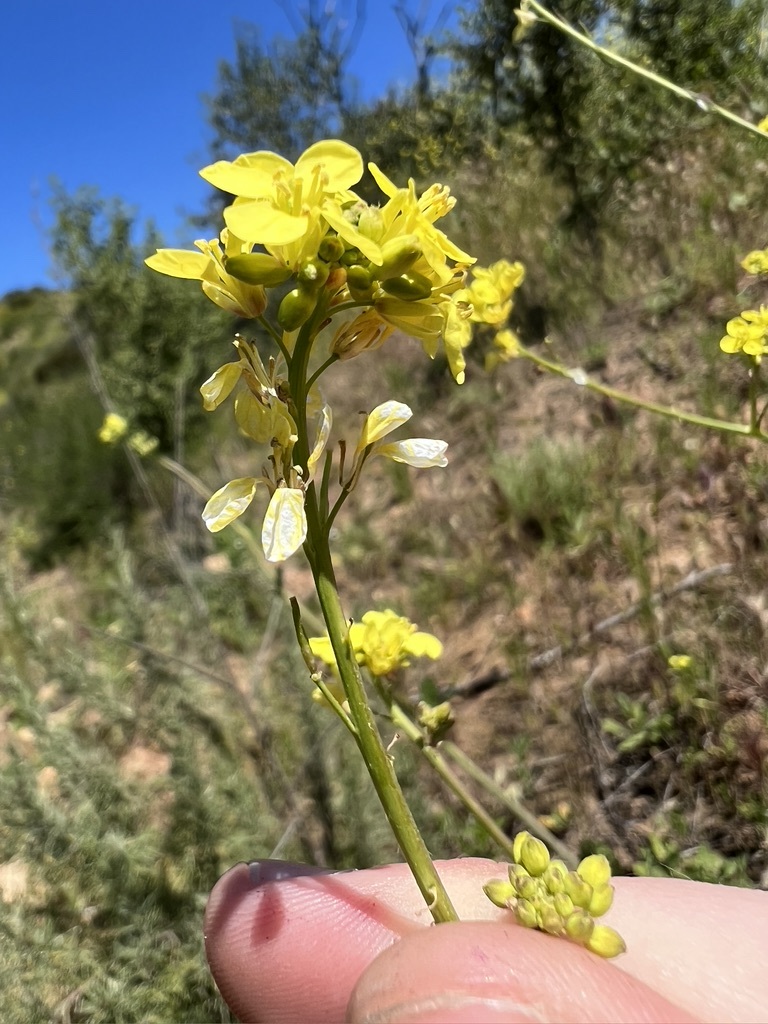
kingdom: Plantae
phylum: Tracheophyta
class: Magnoliopsida
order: Brassicales
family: Brassicaceae
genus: Brassica
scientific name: Brassica nigra
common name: Black mustard
